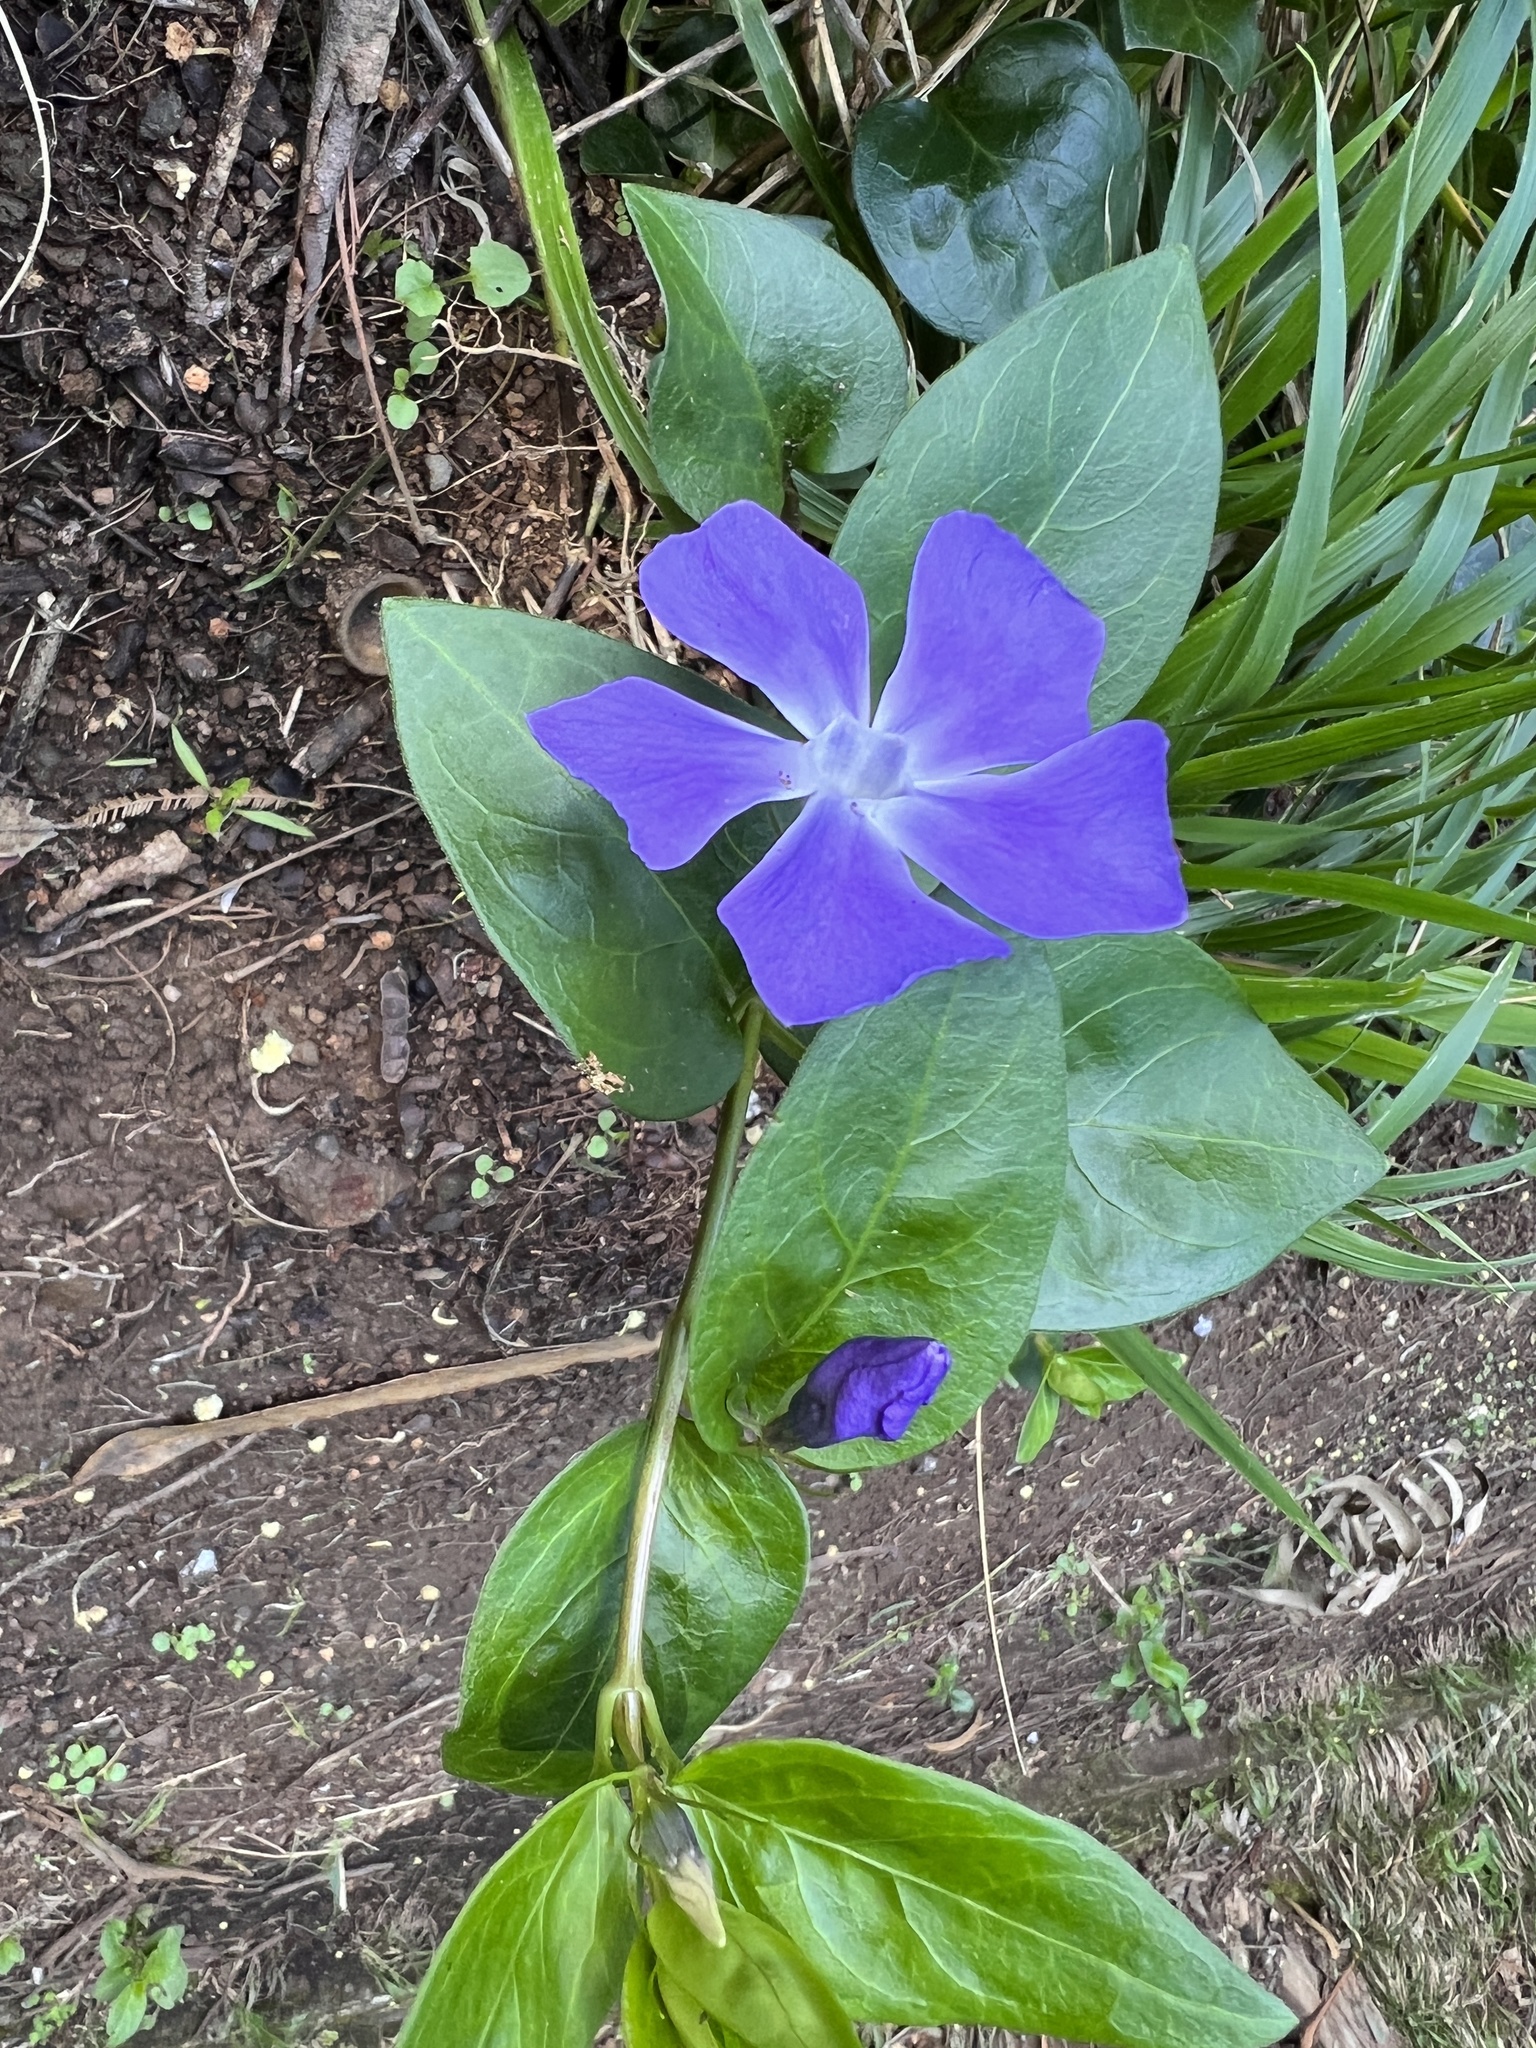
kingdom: Plantae
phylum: Tracheophyta
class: Magnoliopsida
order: Gentianales
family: Apocynaceae
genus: Vinca
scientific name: Vinca major
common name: Greater periwinkle
